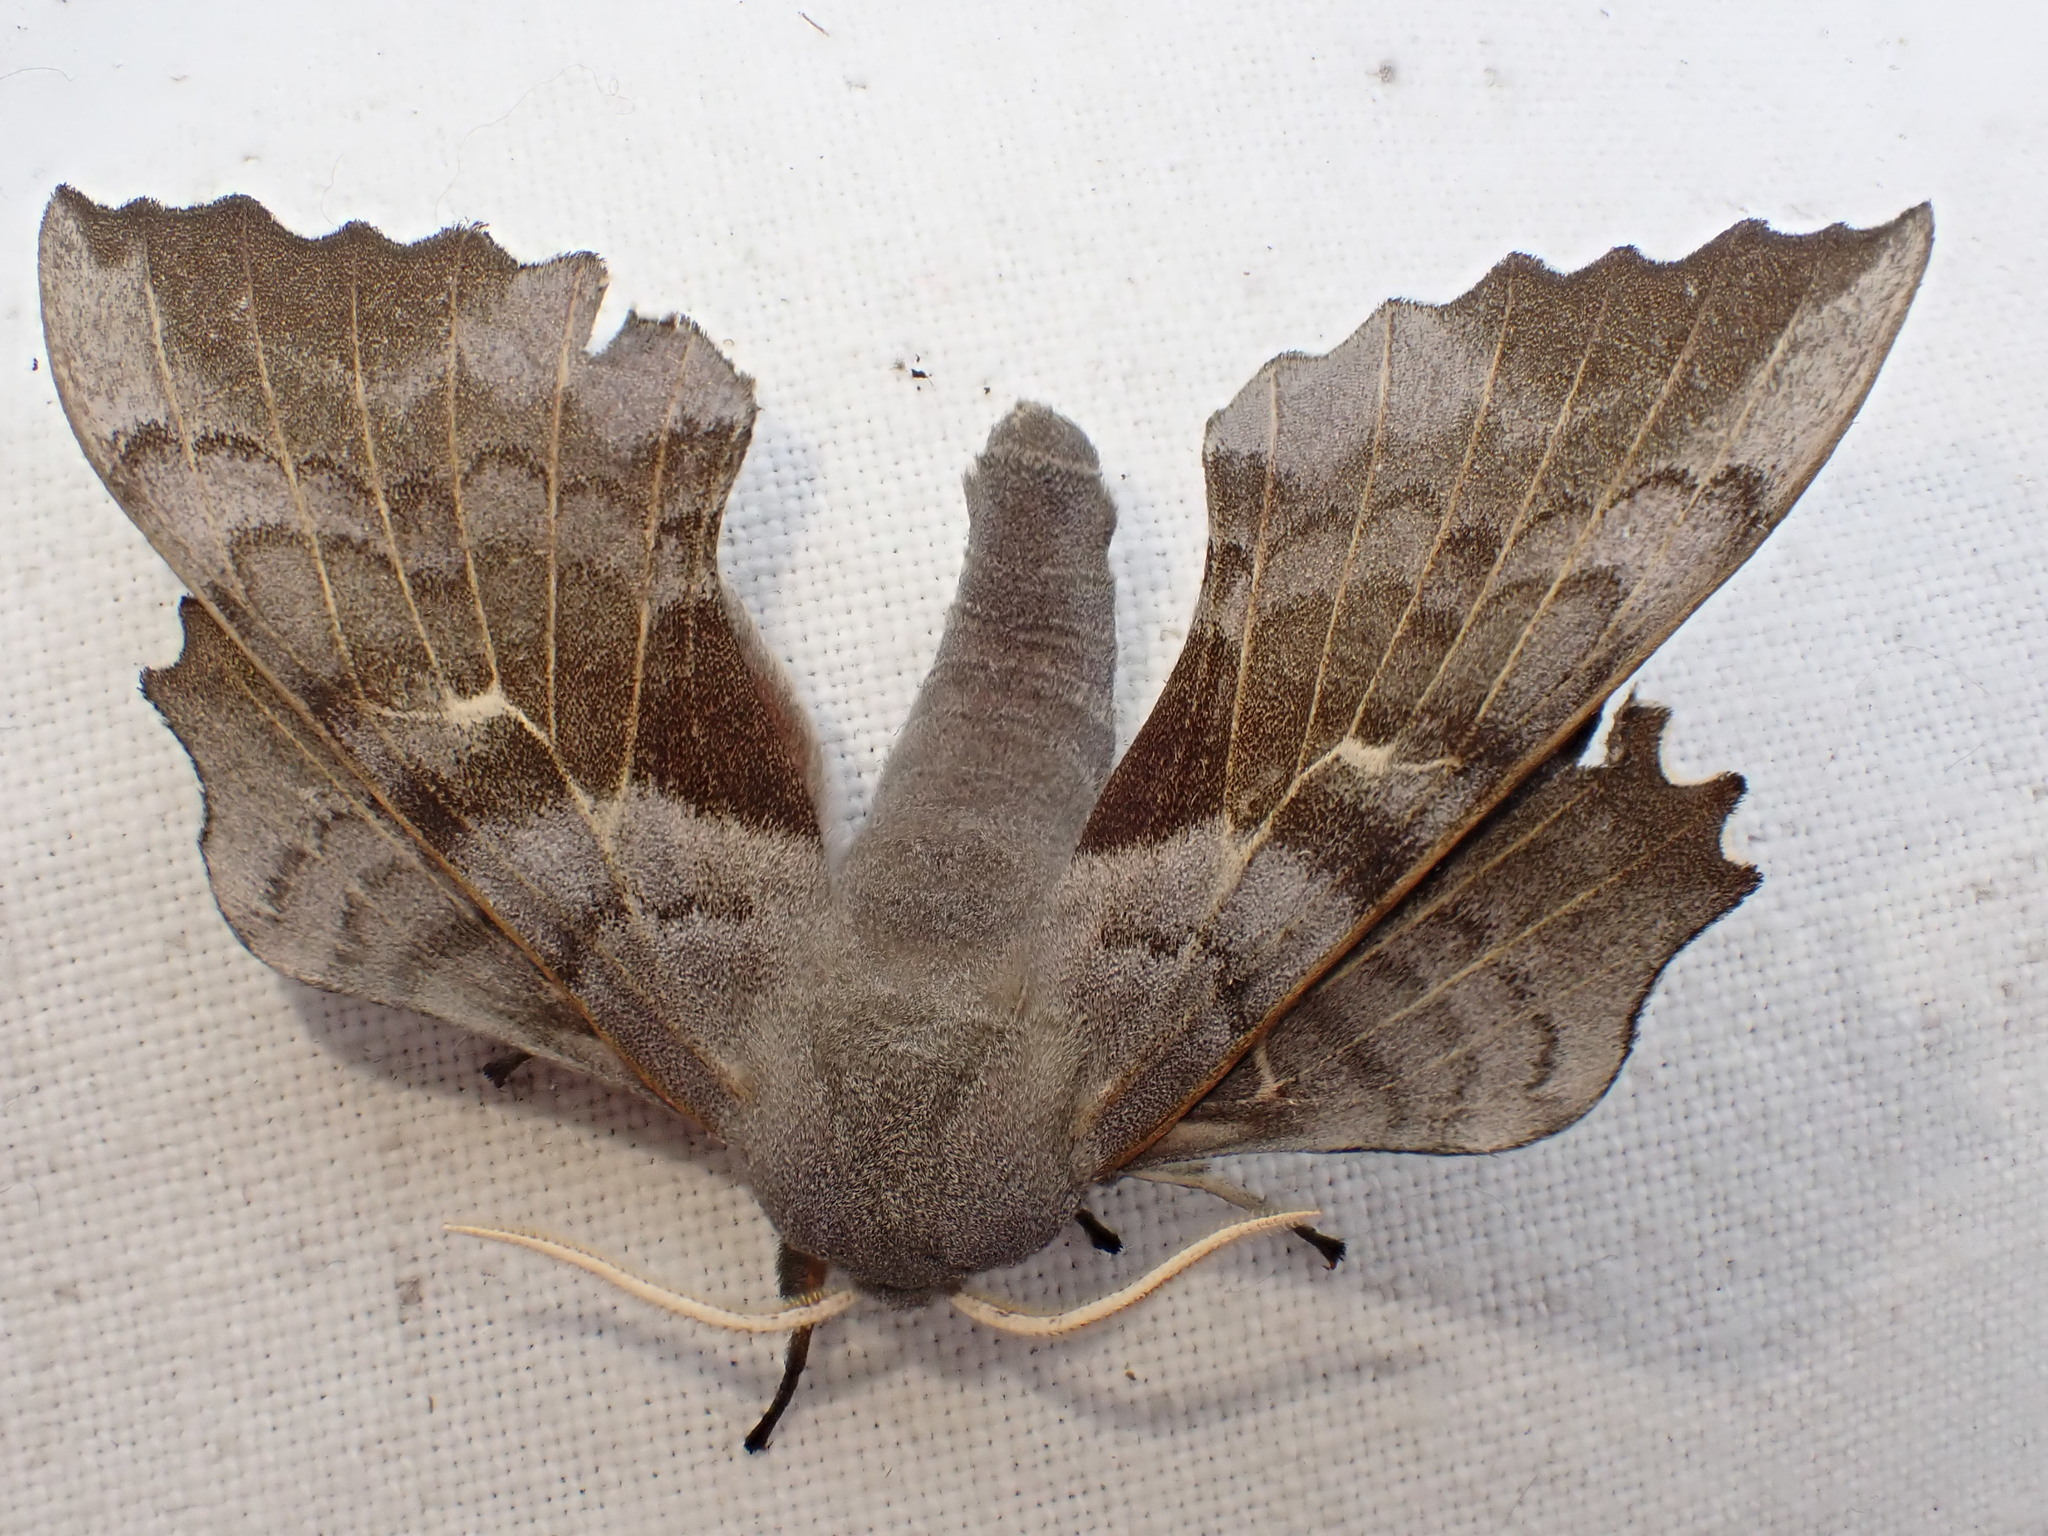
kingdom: Animalia
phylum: Arthropoda
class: Insecta
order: Lepidoptera
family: Sphingidae
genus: Laothoe
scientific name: Laothoe populi
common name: Poplar hawk-moth
